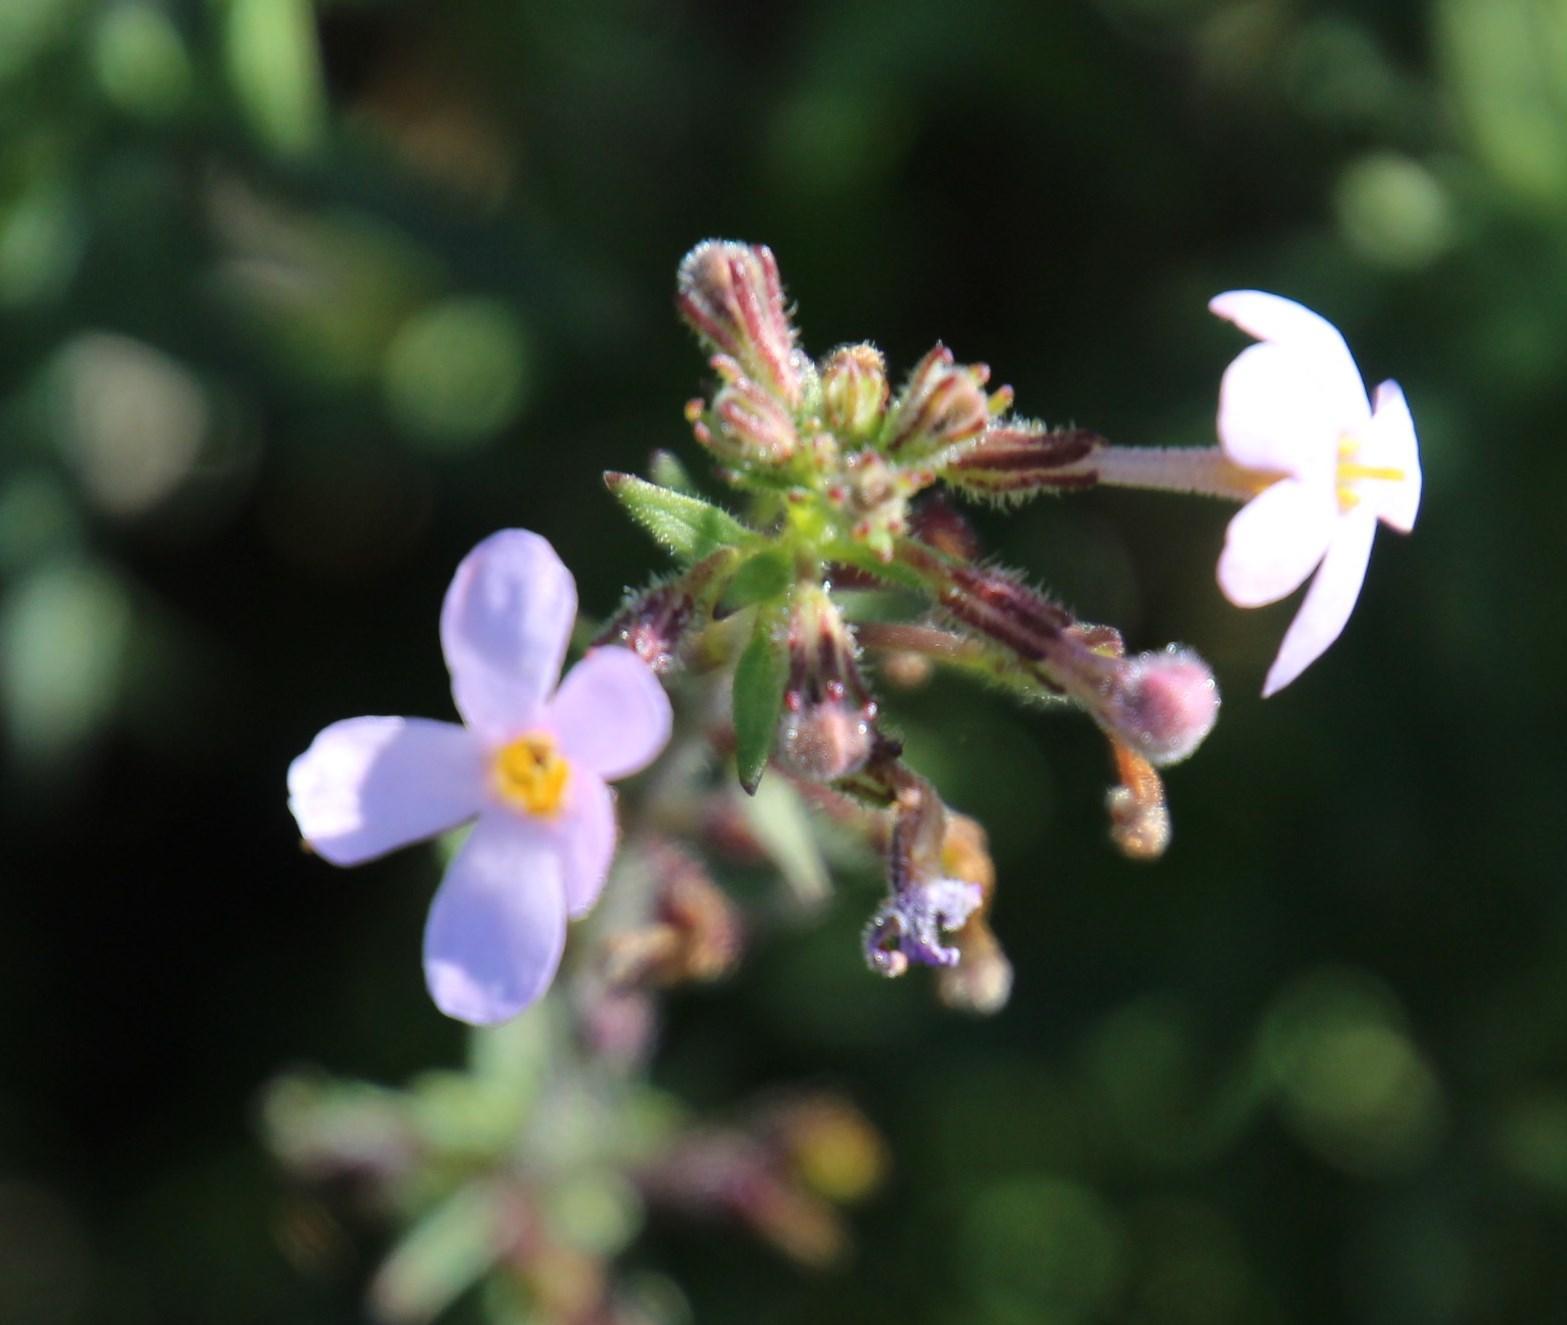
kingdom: Plantae
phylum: Tracheophyta
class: Magnoliopsida
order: Lamiales
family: Scrophulariaceae
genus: Chaenostoma
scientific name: Chaenostoma uncinatum
